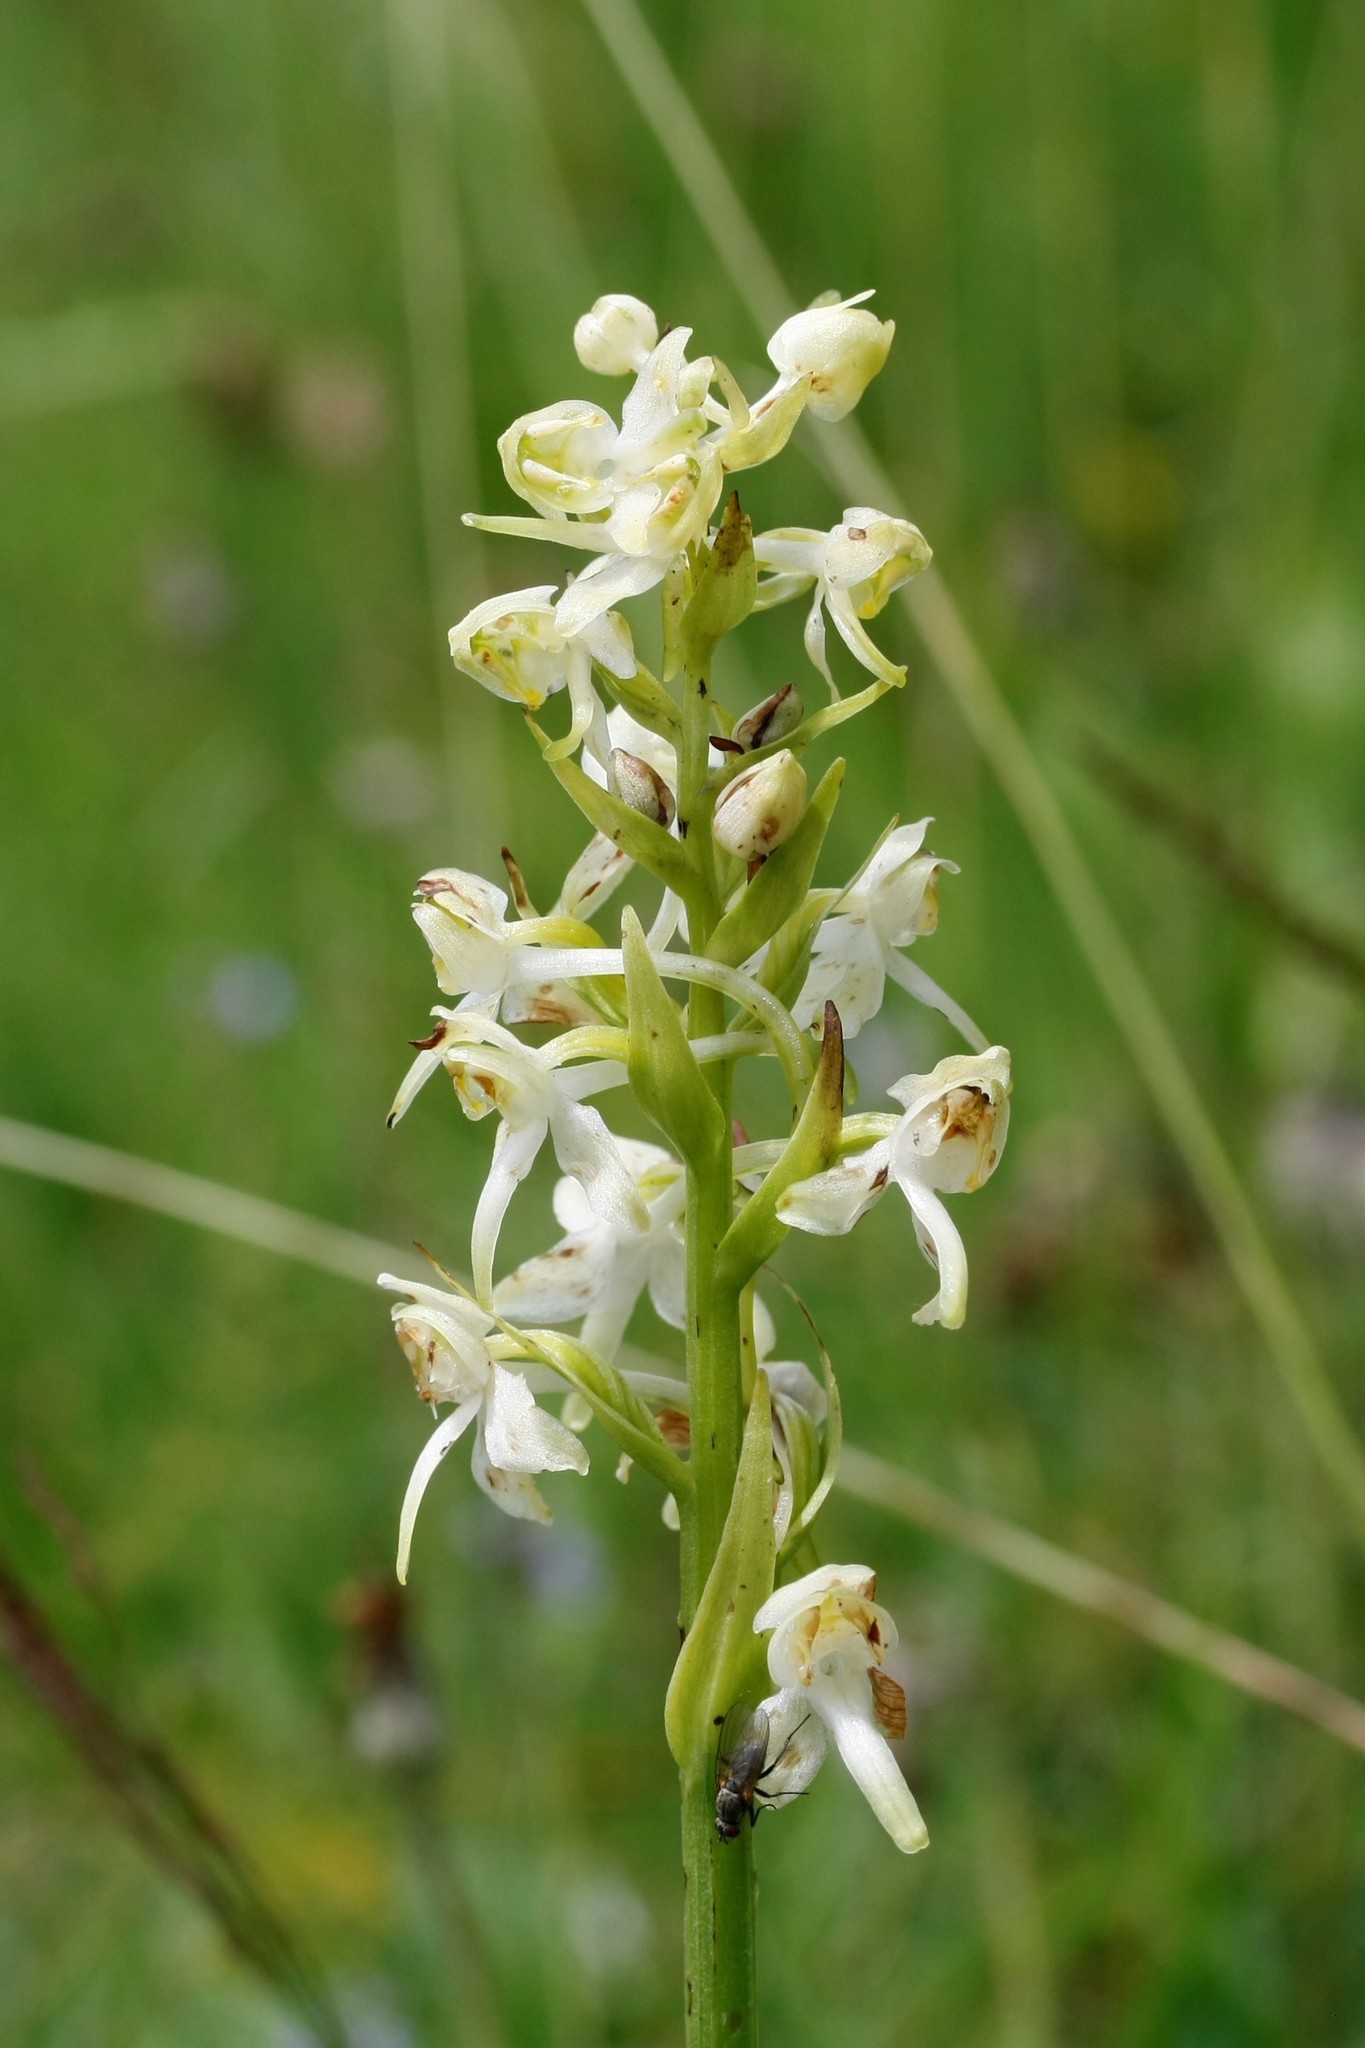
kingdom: Plantae
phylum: Tracheophyta
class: Liliopsida
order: Asparagales
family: Orchidaceae
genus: Platanthera
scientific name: Platanthera chlorantha
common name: Greater butterfly-orchid
